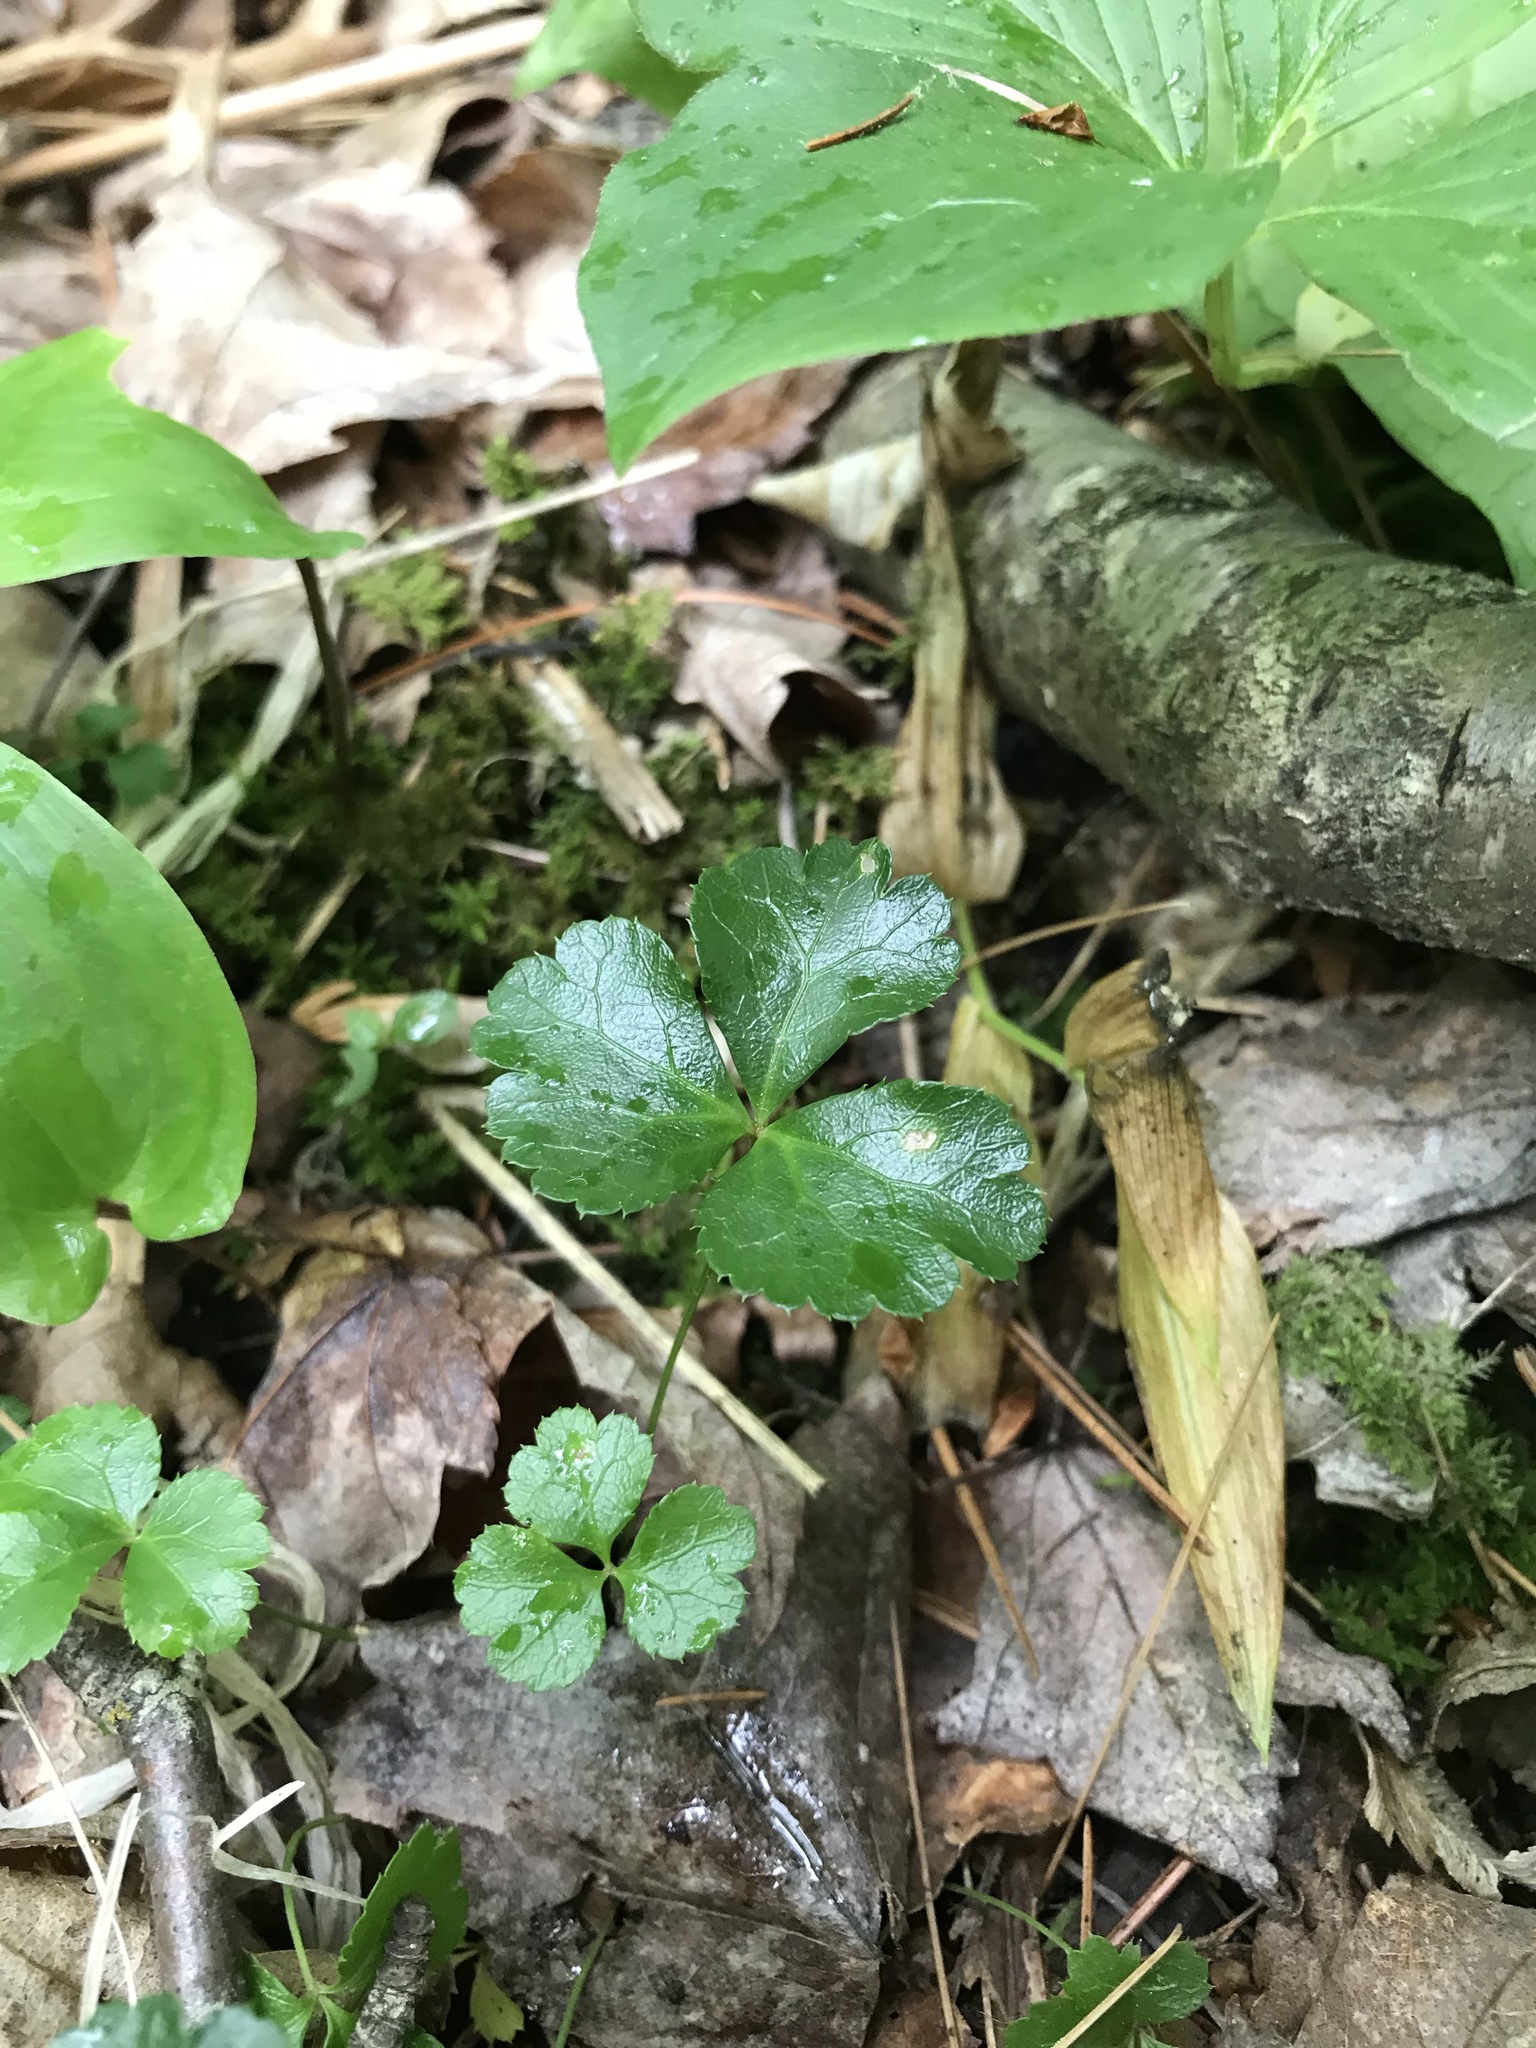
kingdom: Plantae
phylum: Tracheophyta
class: Magnoliopsida
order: Ranunculales
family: Ranunculaceae
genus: Coptis
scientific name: Coptis trifolia
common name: Canker-root
